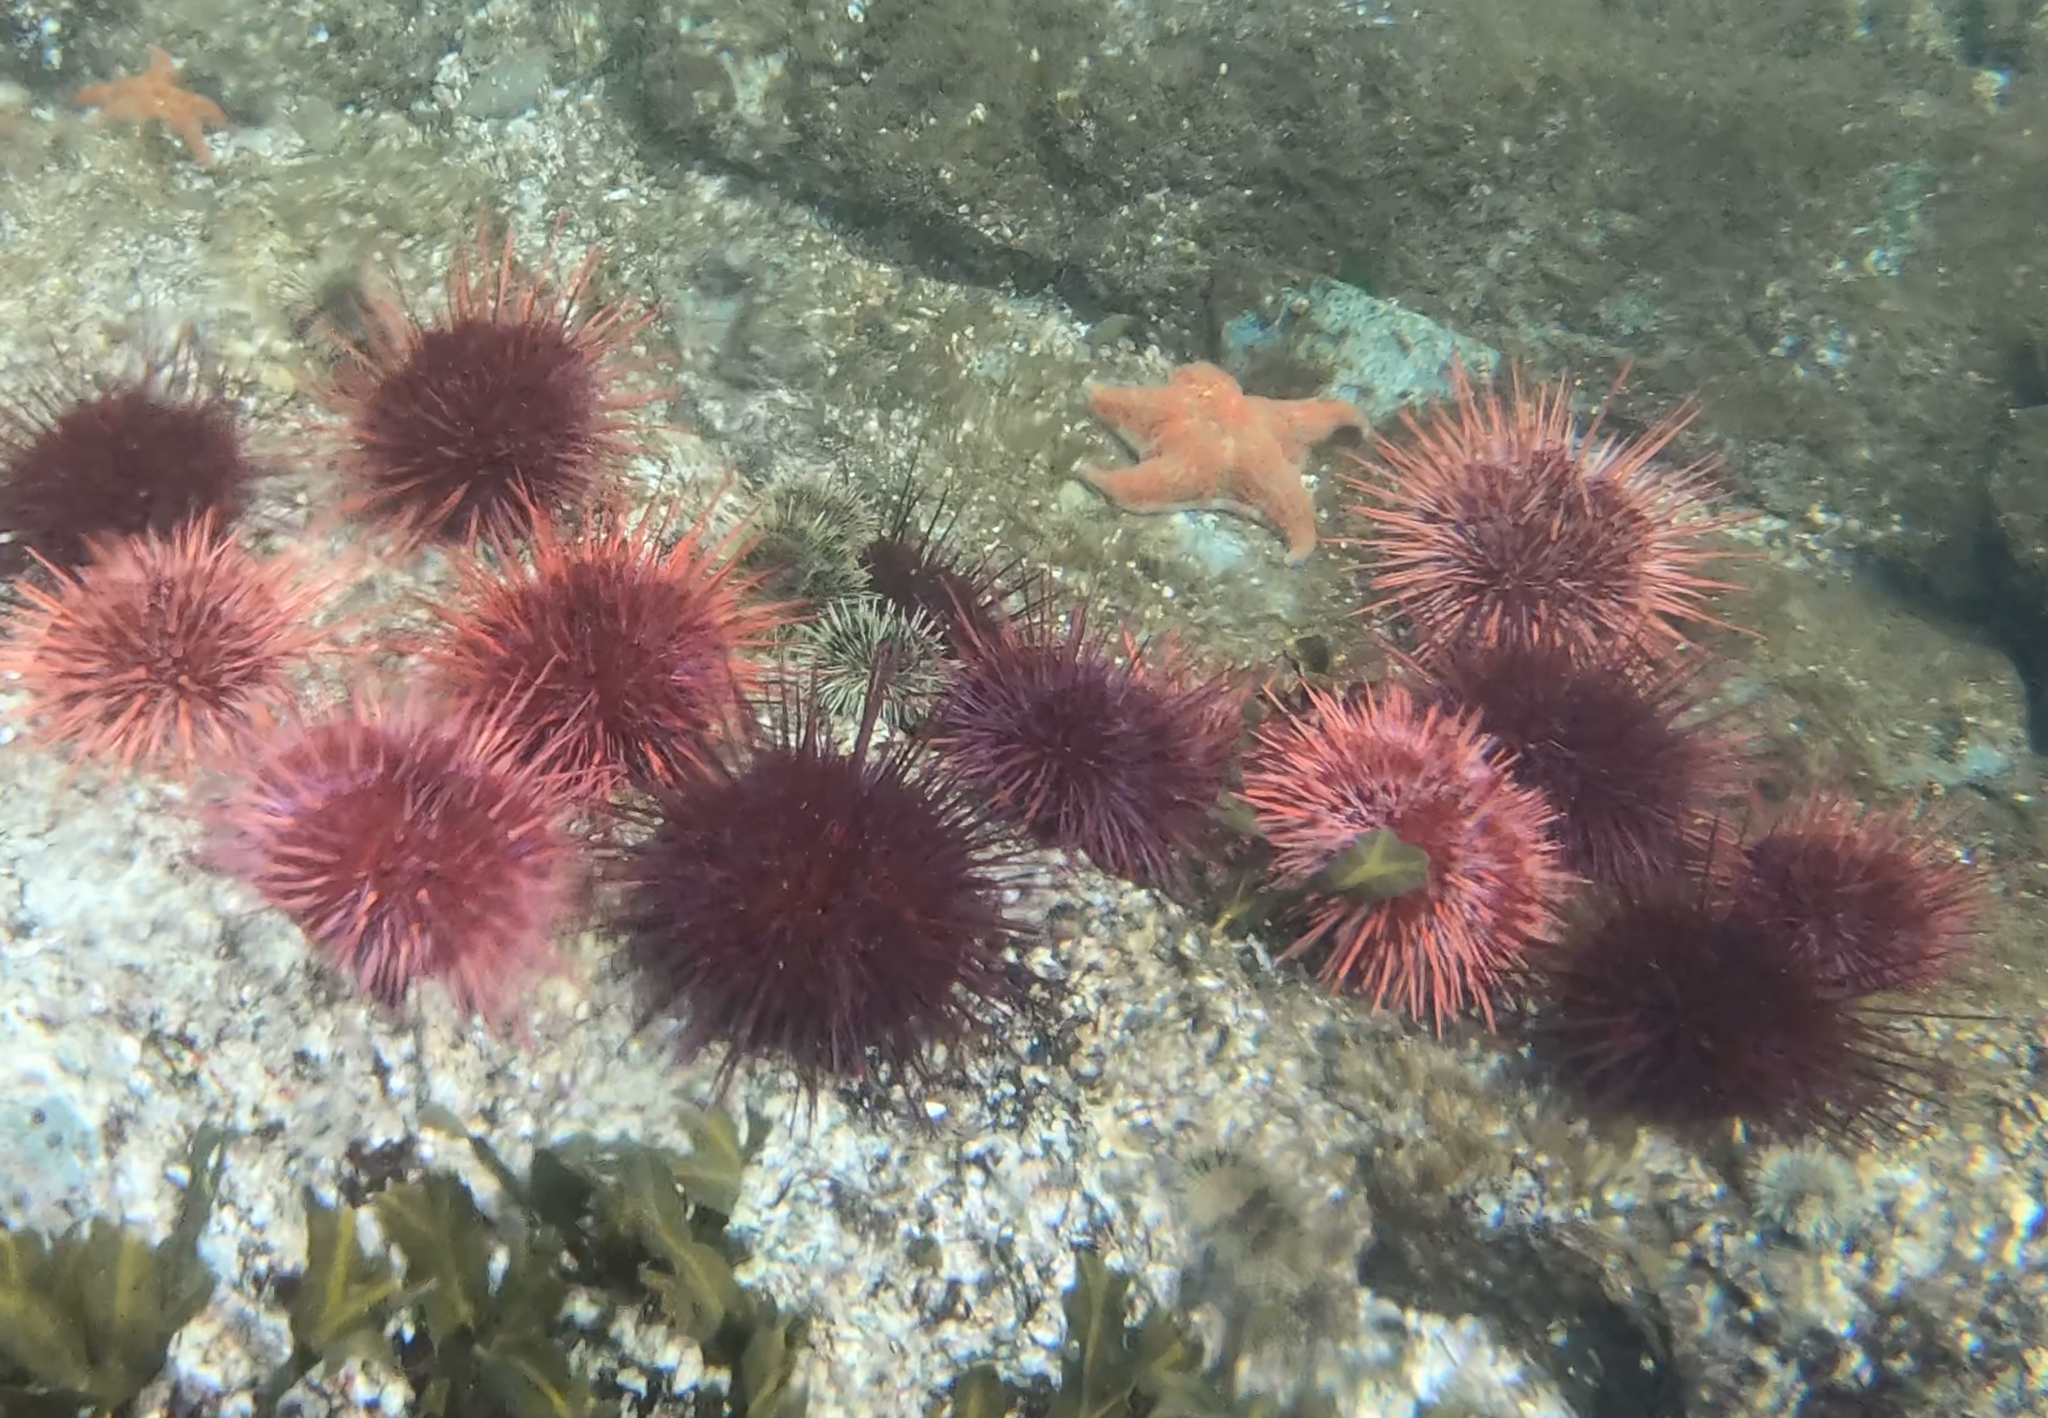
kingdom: Animalia
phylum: Echinodermata
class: Echinoidea
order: Camarodonta
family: Strongylocentrotidae
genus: Mesocentrotus
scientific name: Mesocentrotus franciscanus
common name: Red sea urchin
